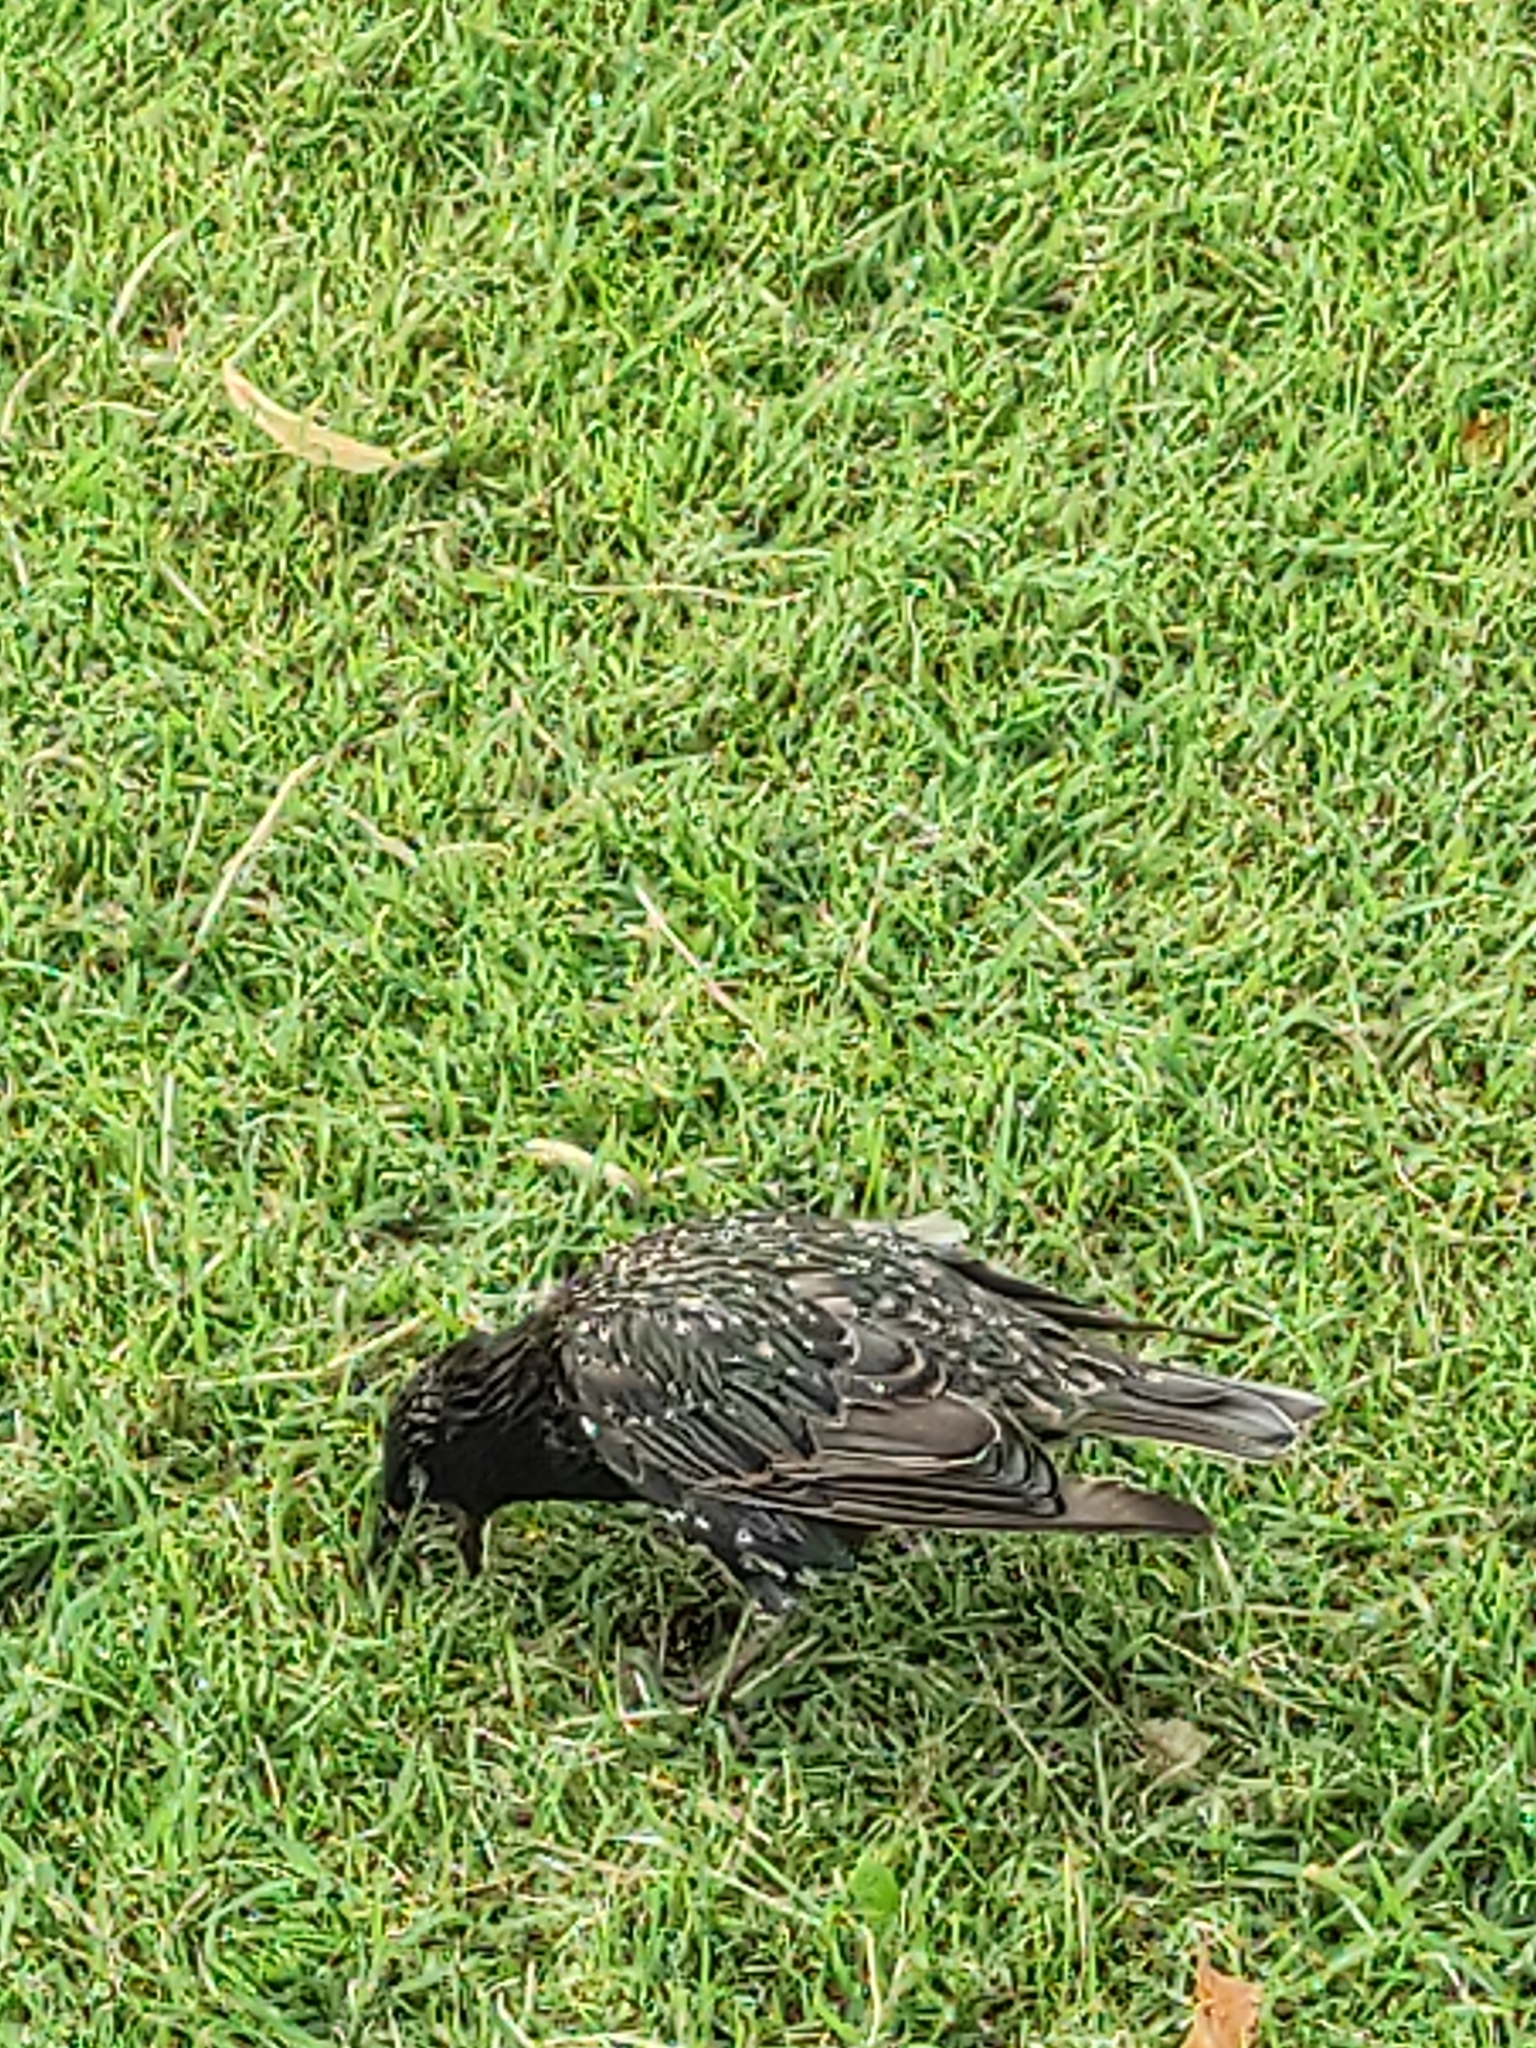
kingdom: Animalia
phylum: Chordata
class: Aves
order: Passeriformes
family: Sturnidae
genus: Sturnus
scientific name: Sturnus vulgaris
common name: Common starling
